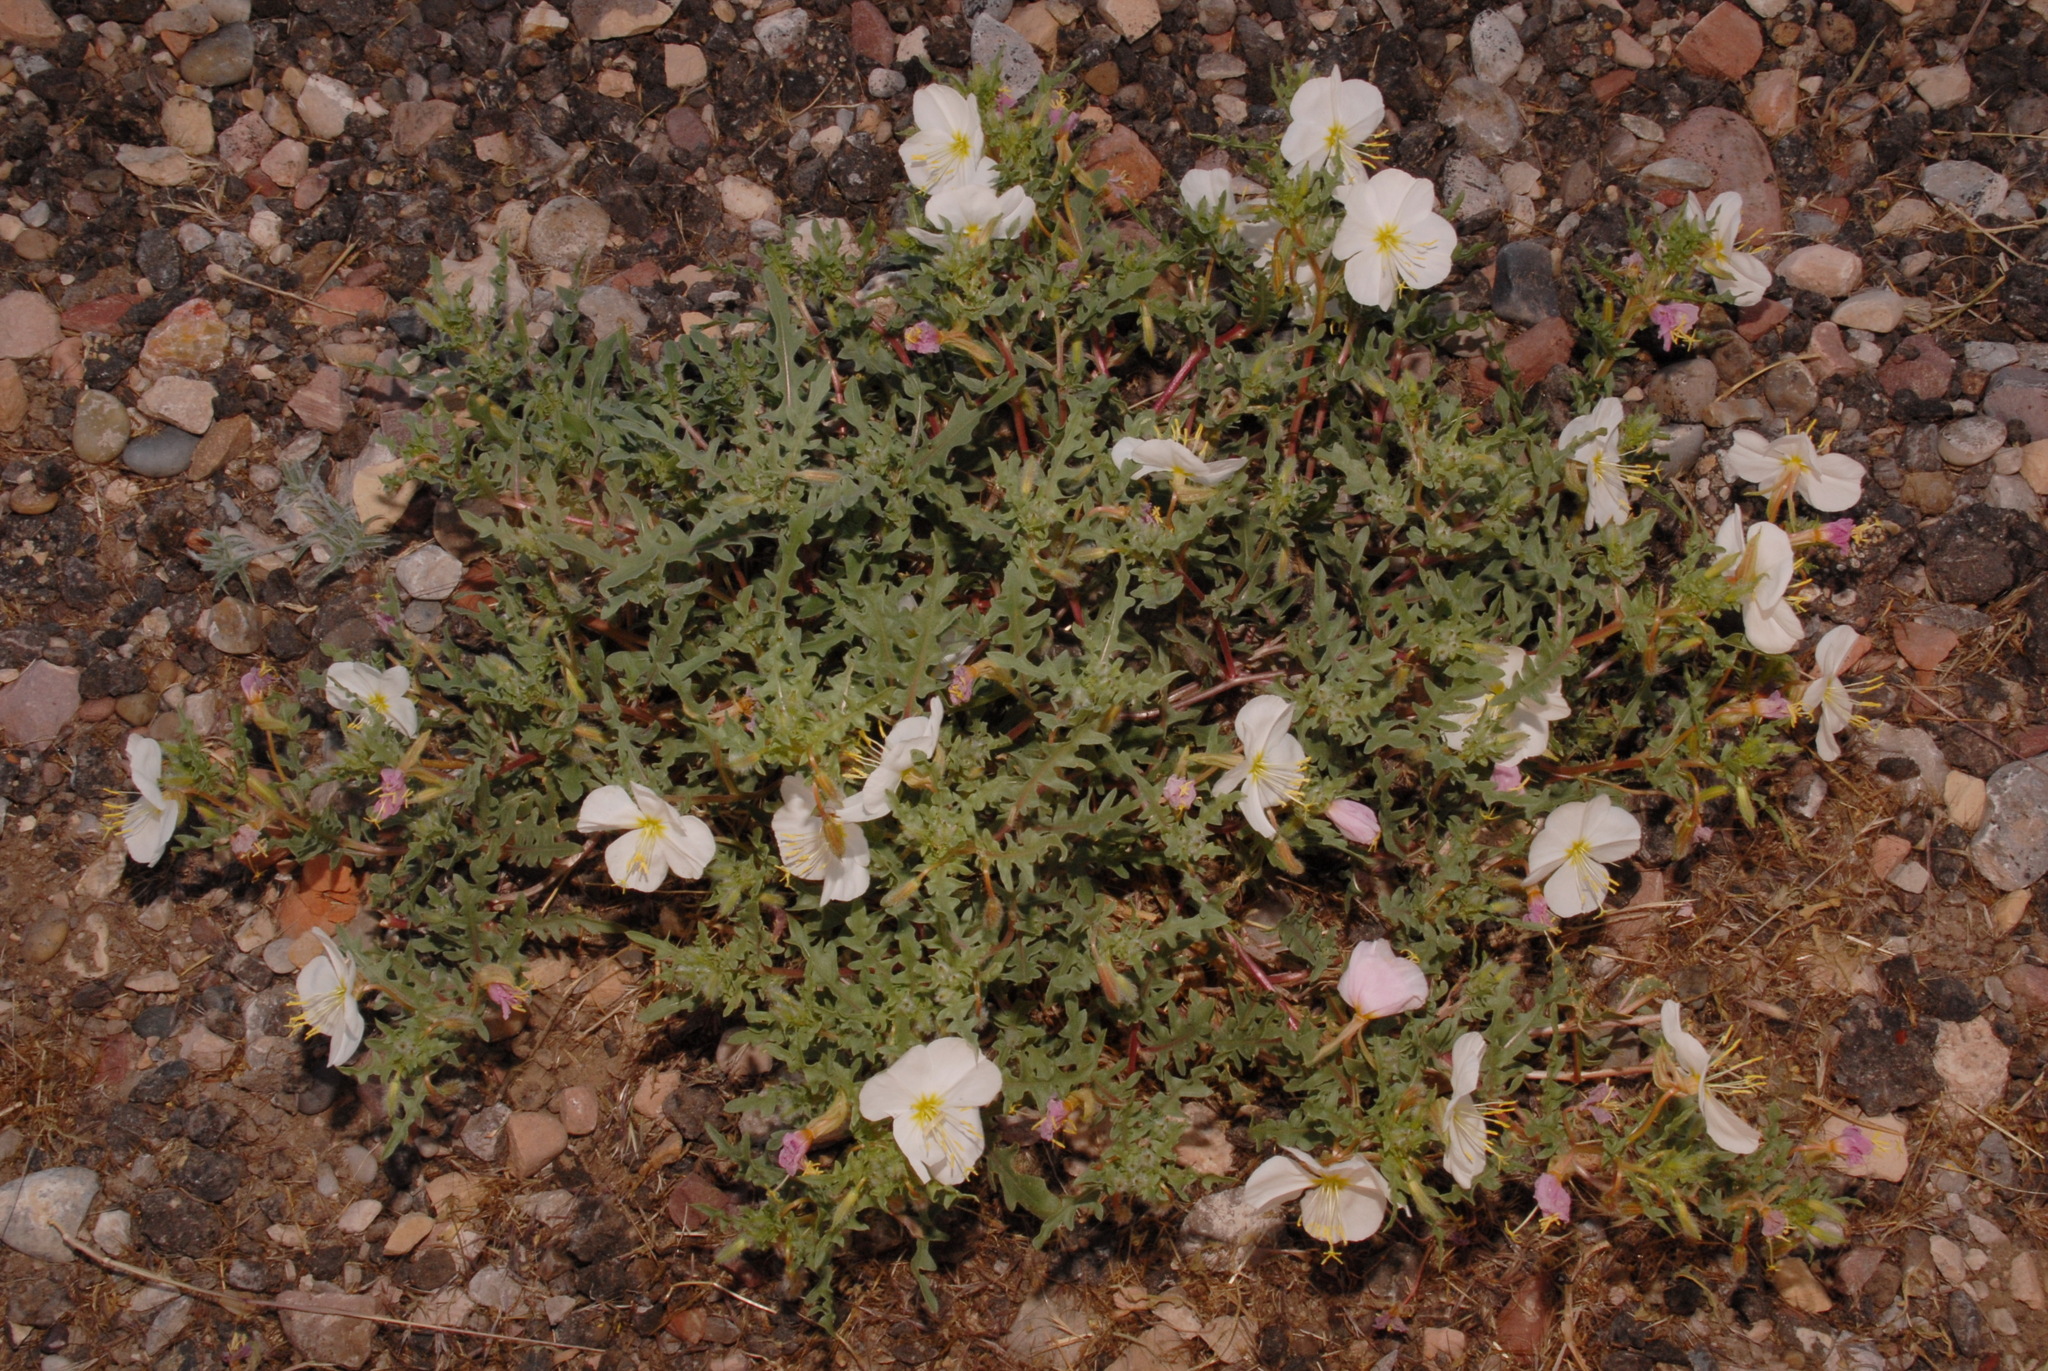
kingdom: Plantae
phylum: Tracheophyta
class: Magnoliopsida
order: Myrtales
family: Onagraceae
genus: Oenothera
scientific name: Oenothera pallida
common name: Pale evening-primrose
